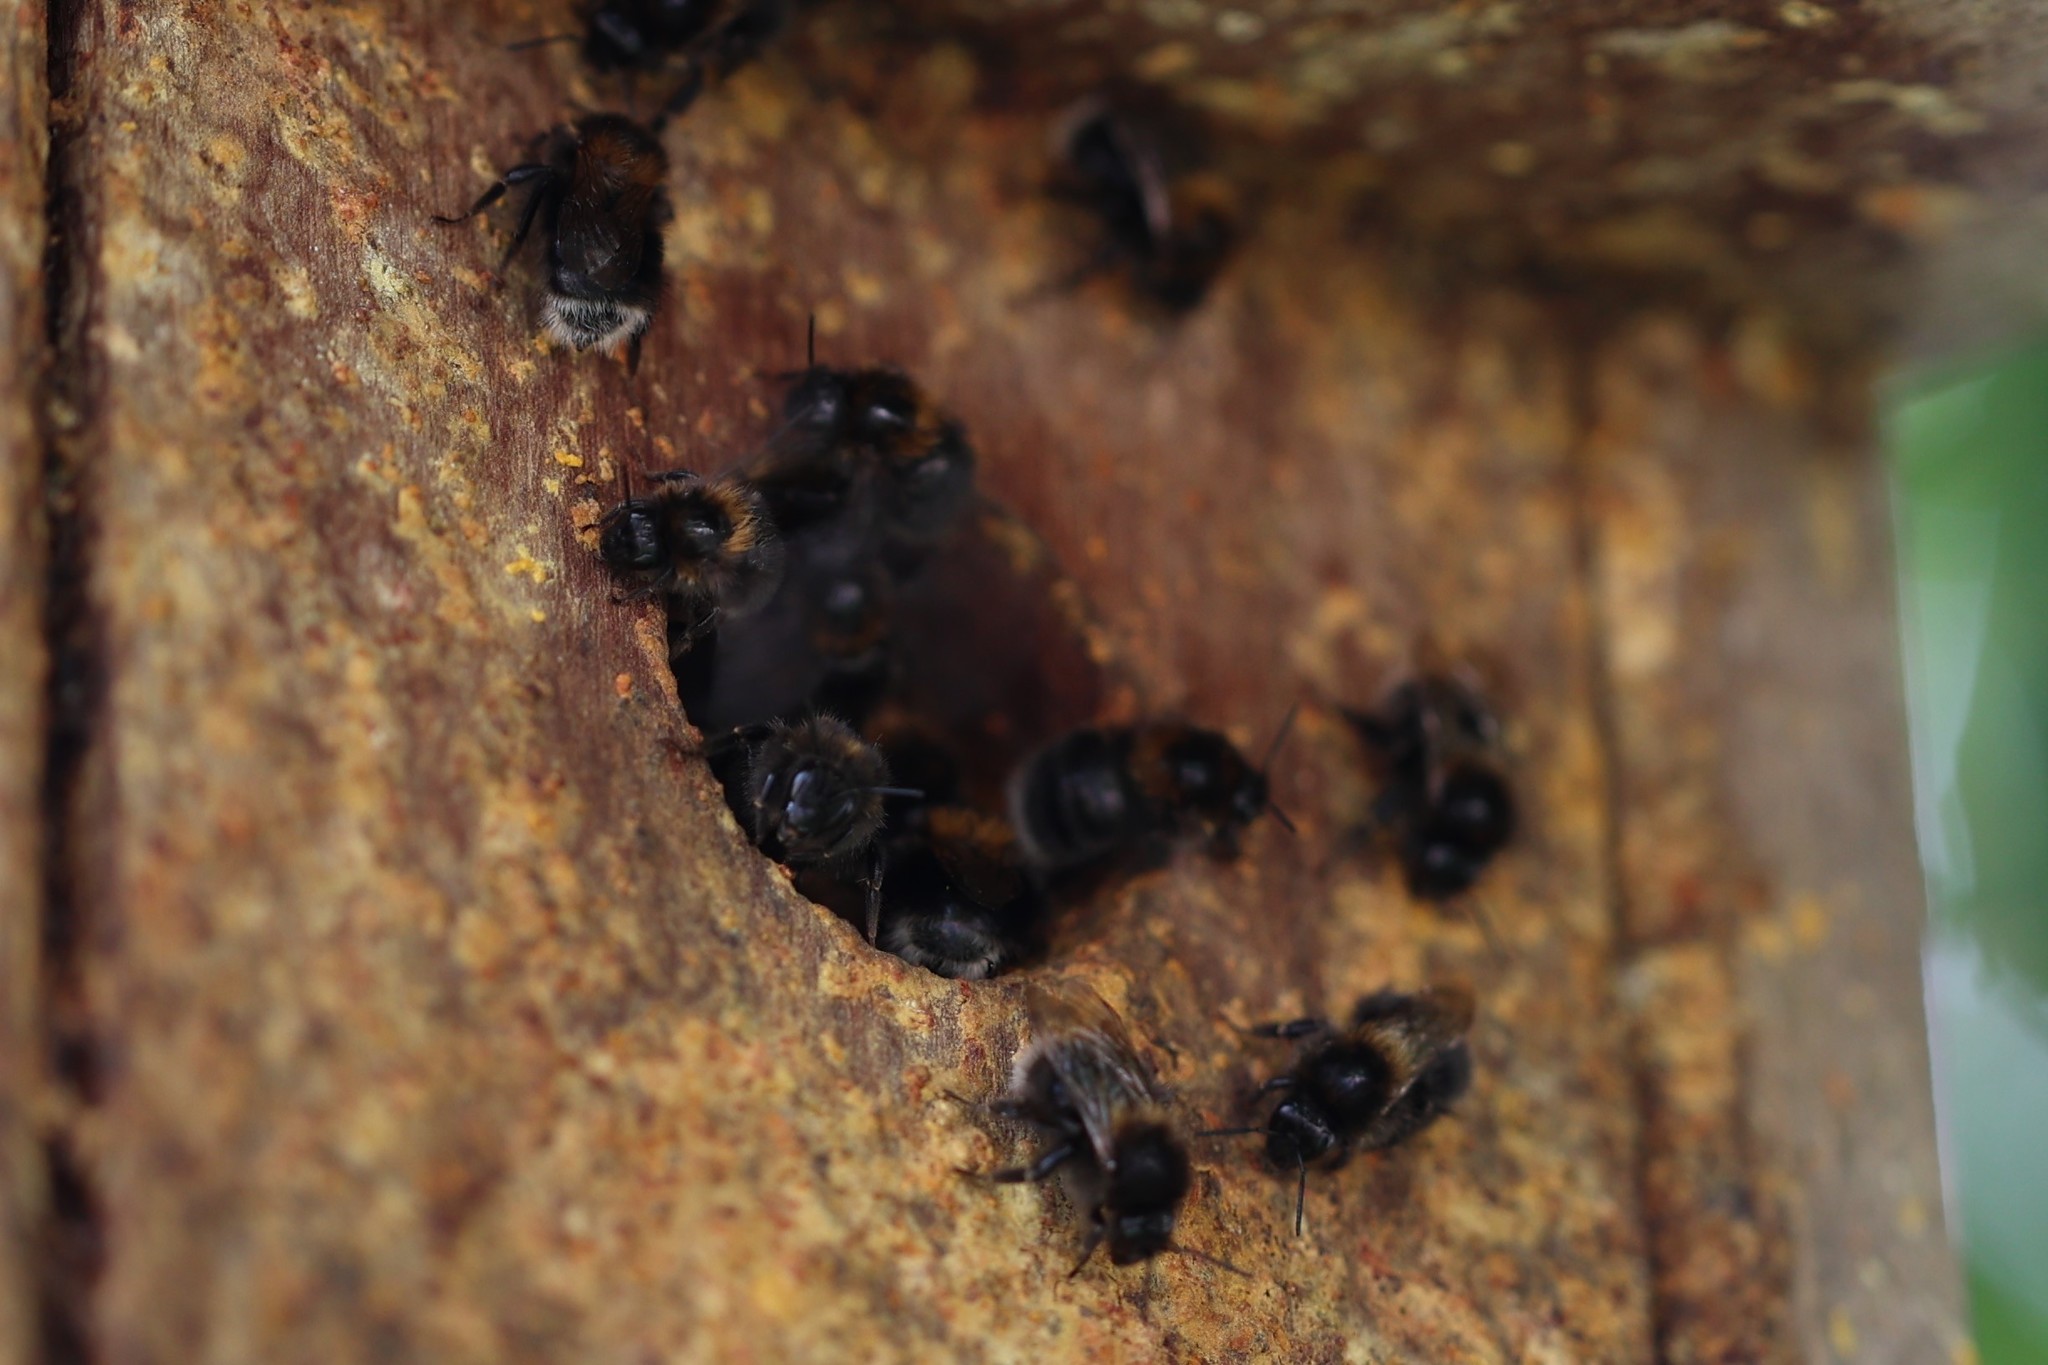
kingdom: Animalia
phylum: Arthropoda
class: Insecta
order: Hymenoptera
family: Apidae
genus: Bombus
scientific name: Bombus hypnorum
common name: New garden bumblebee
